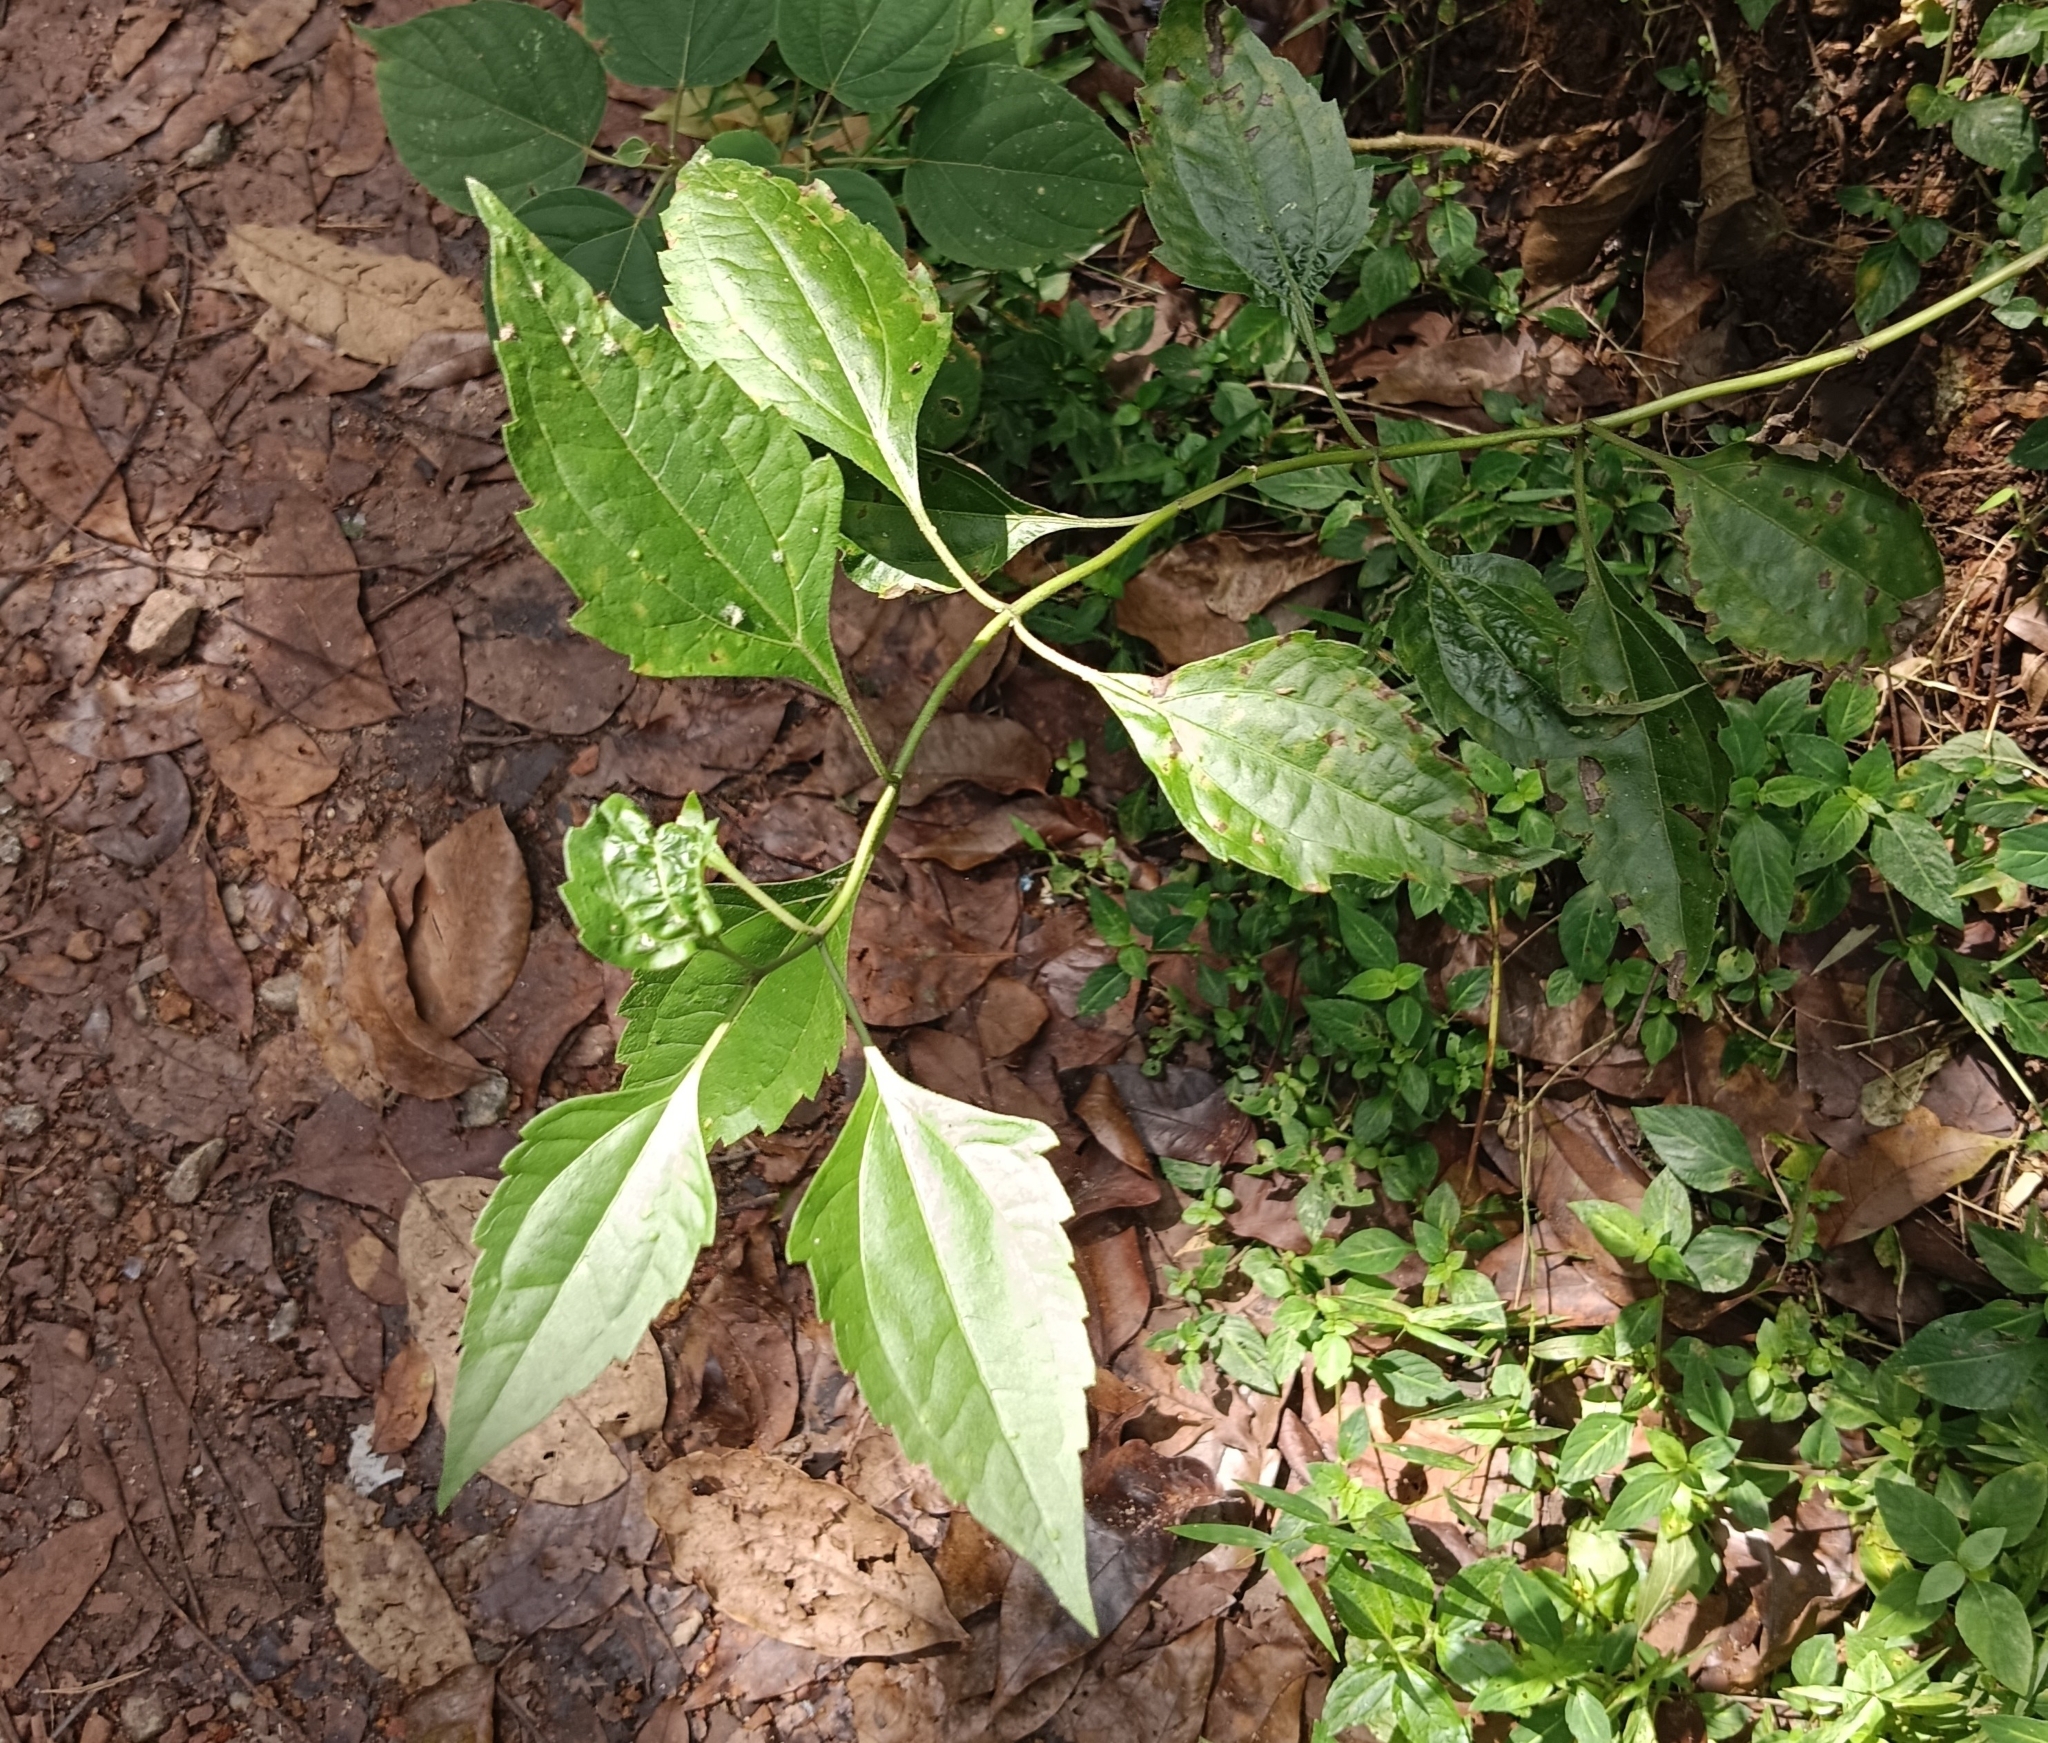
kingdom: Plantae
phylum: Tracheophyta
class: Magnoliopsida
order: Asterales
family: Asteraceae
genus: Chromolaena
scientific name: Chromolaena odorata
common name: Siamweed
